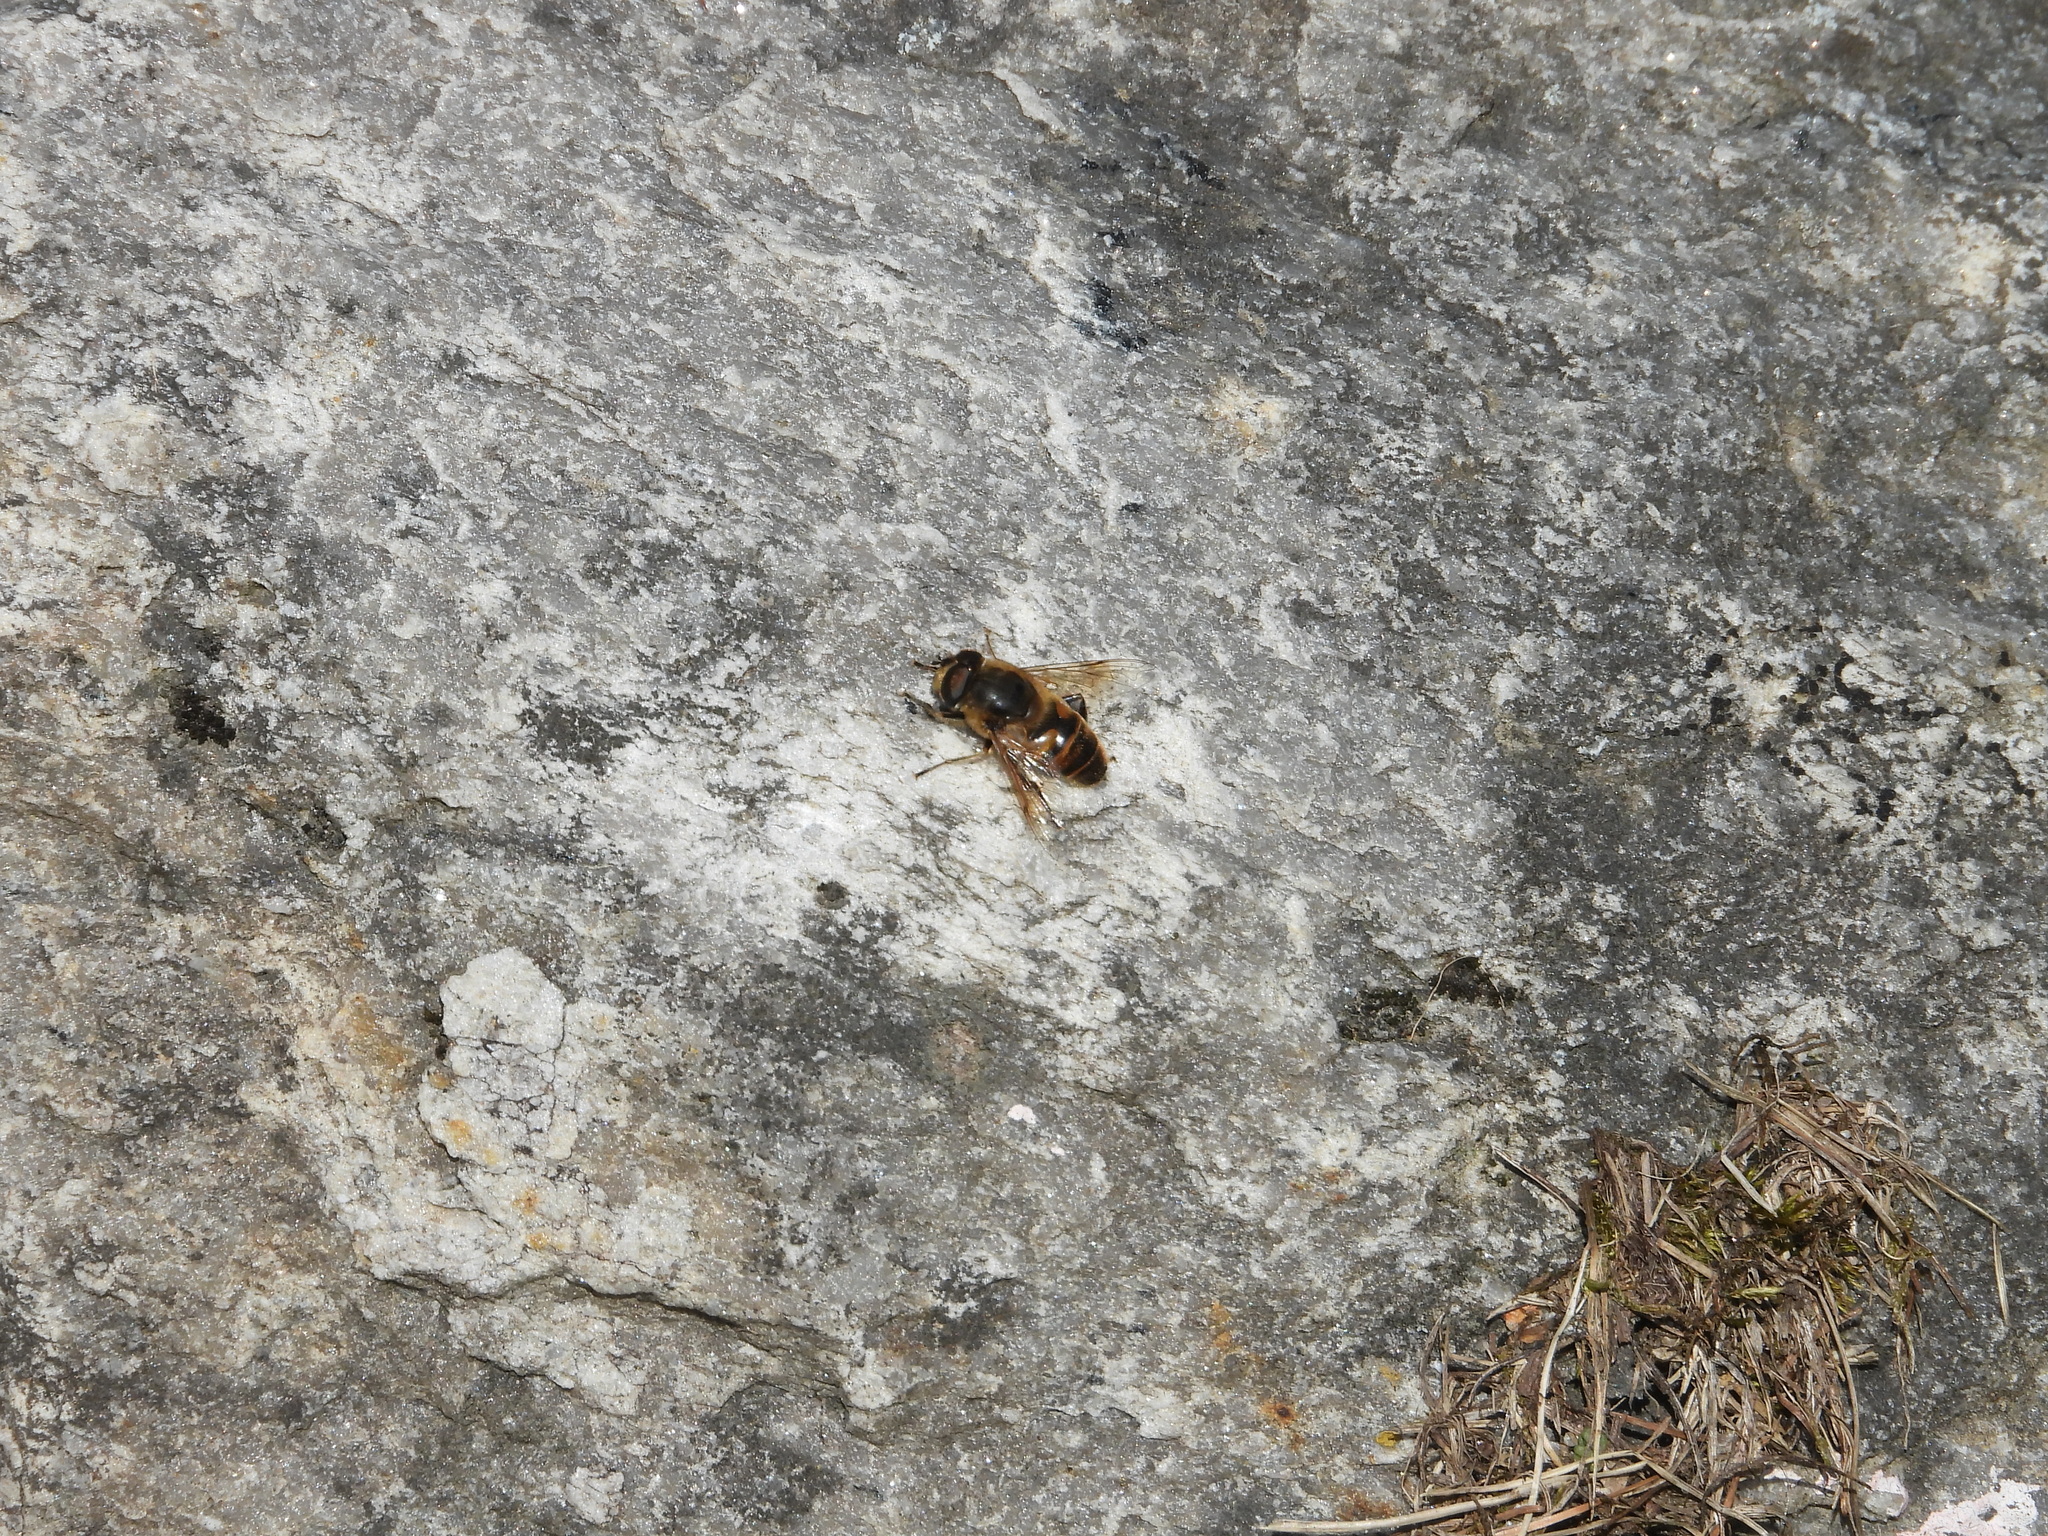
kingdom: Animalia
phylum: Arthropoda
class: Insecta
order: Diptera
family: Syrphidae
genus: Eristalis
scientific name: Eristalis tenax
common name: Drone fly
